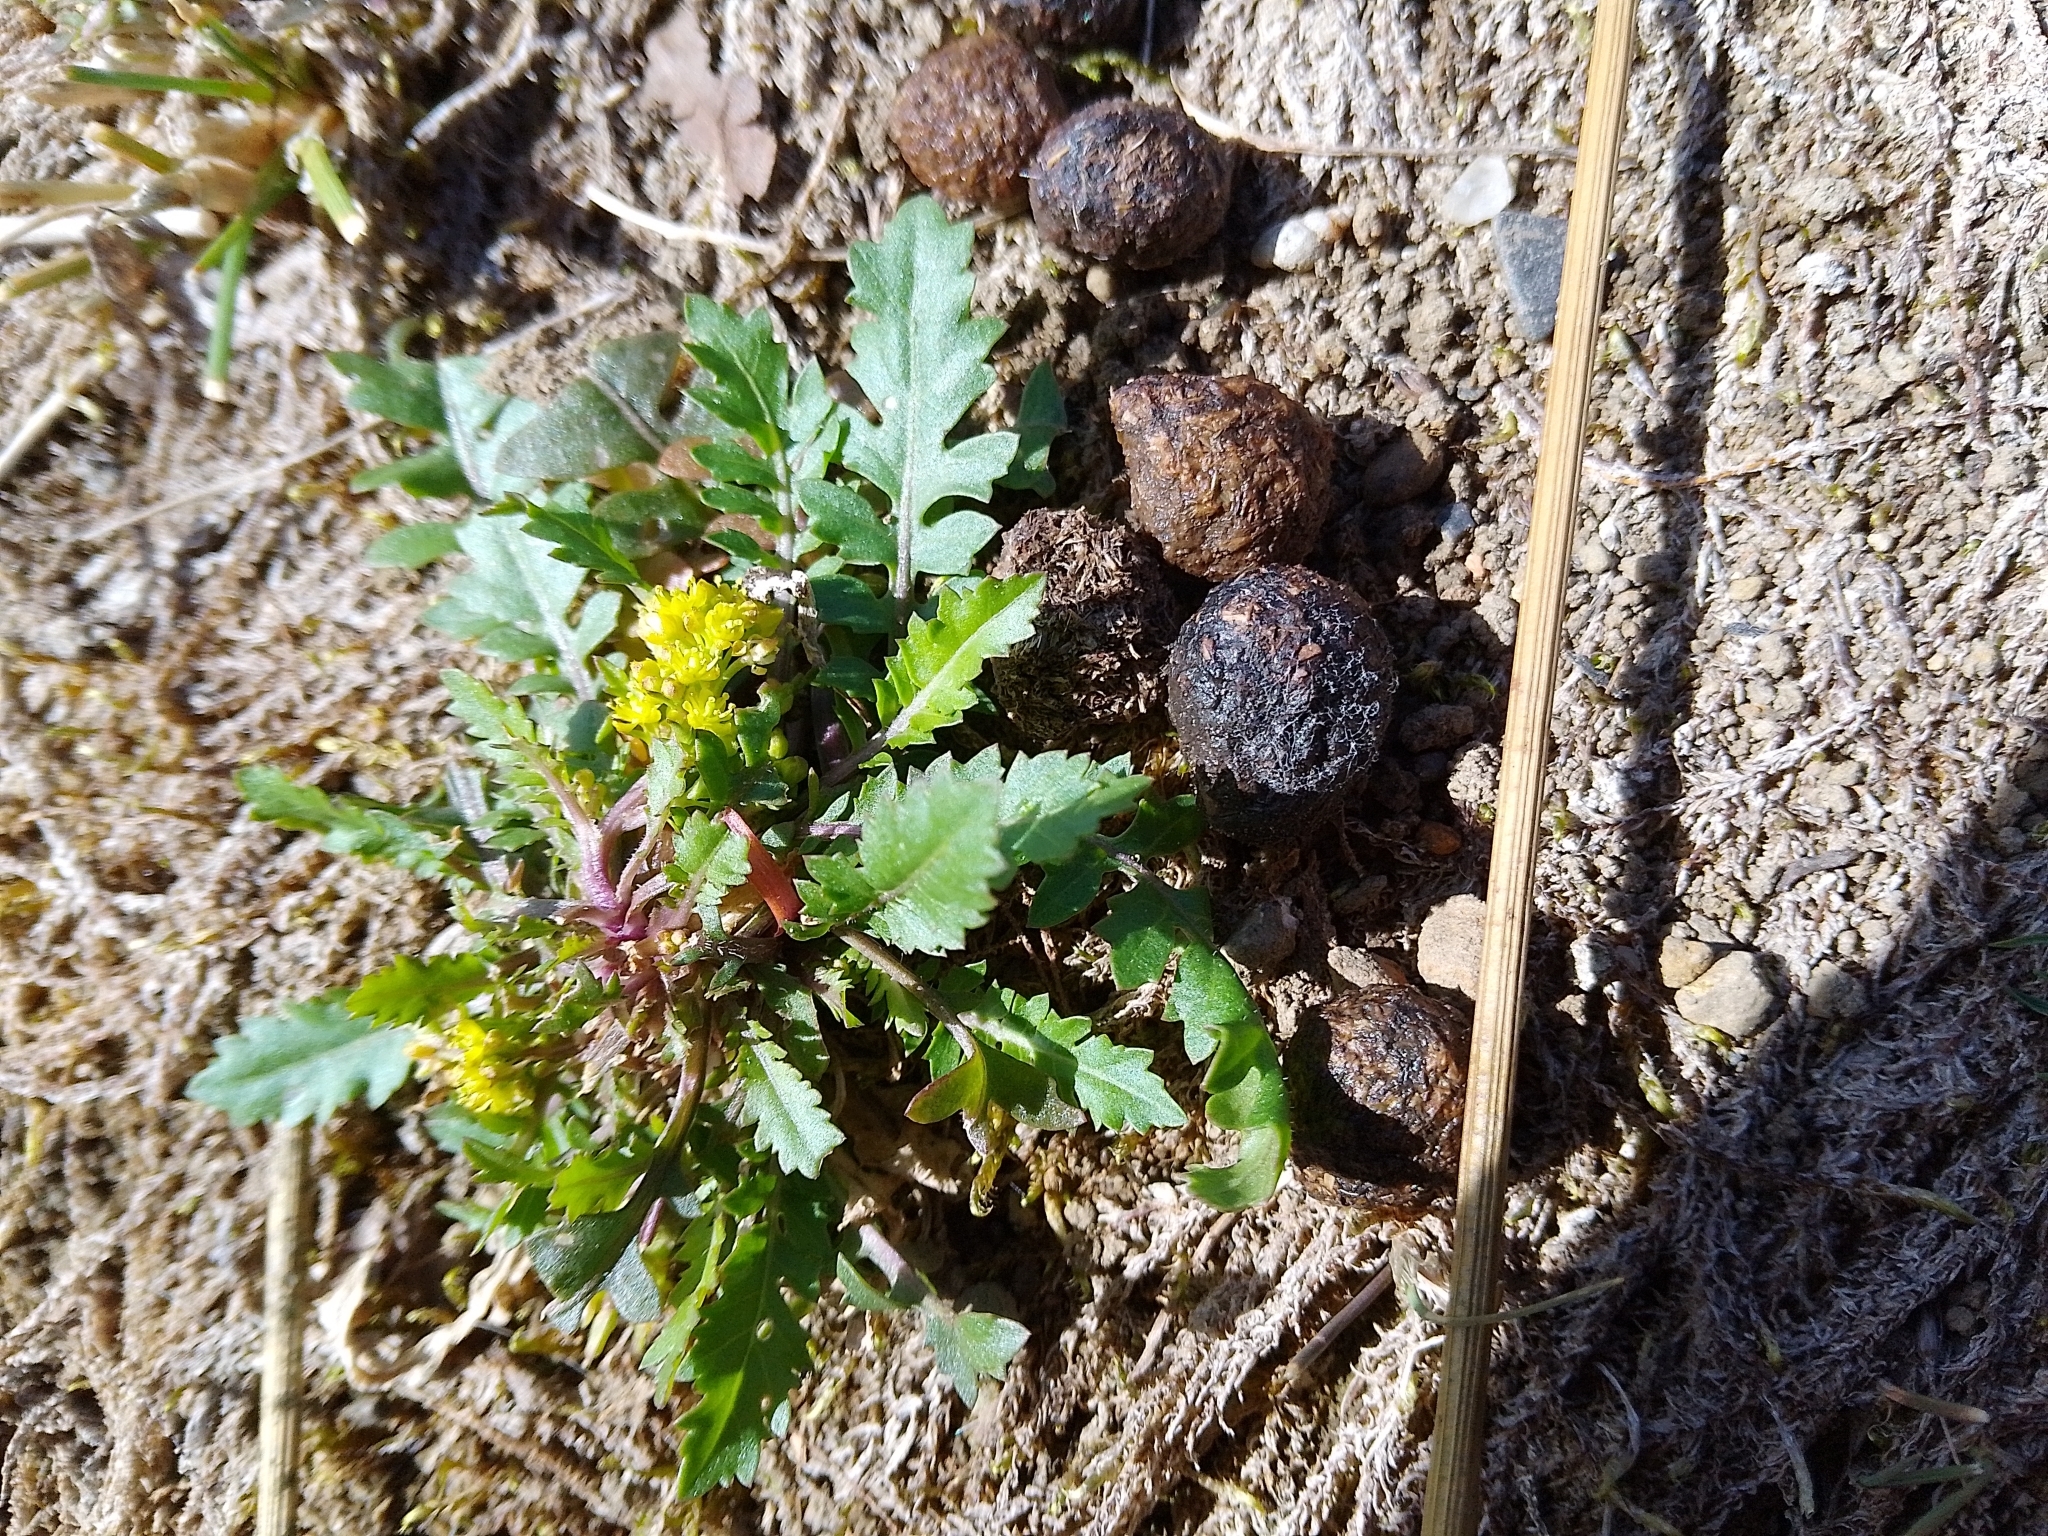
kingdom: Plantae
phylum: Tracheophyta
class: Magnoliopsida
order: Brassicales
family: Brassicaceae
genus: Rorippa
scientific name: Rorippa islandica
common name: Marsh cress
